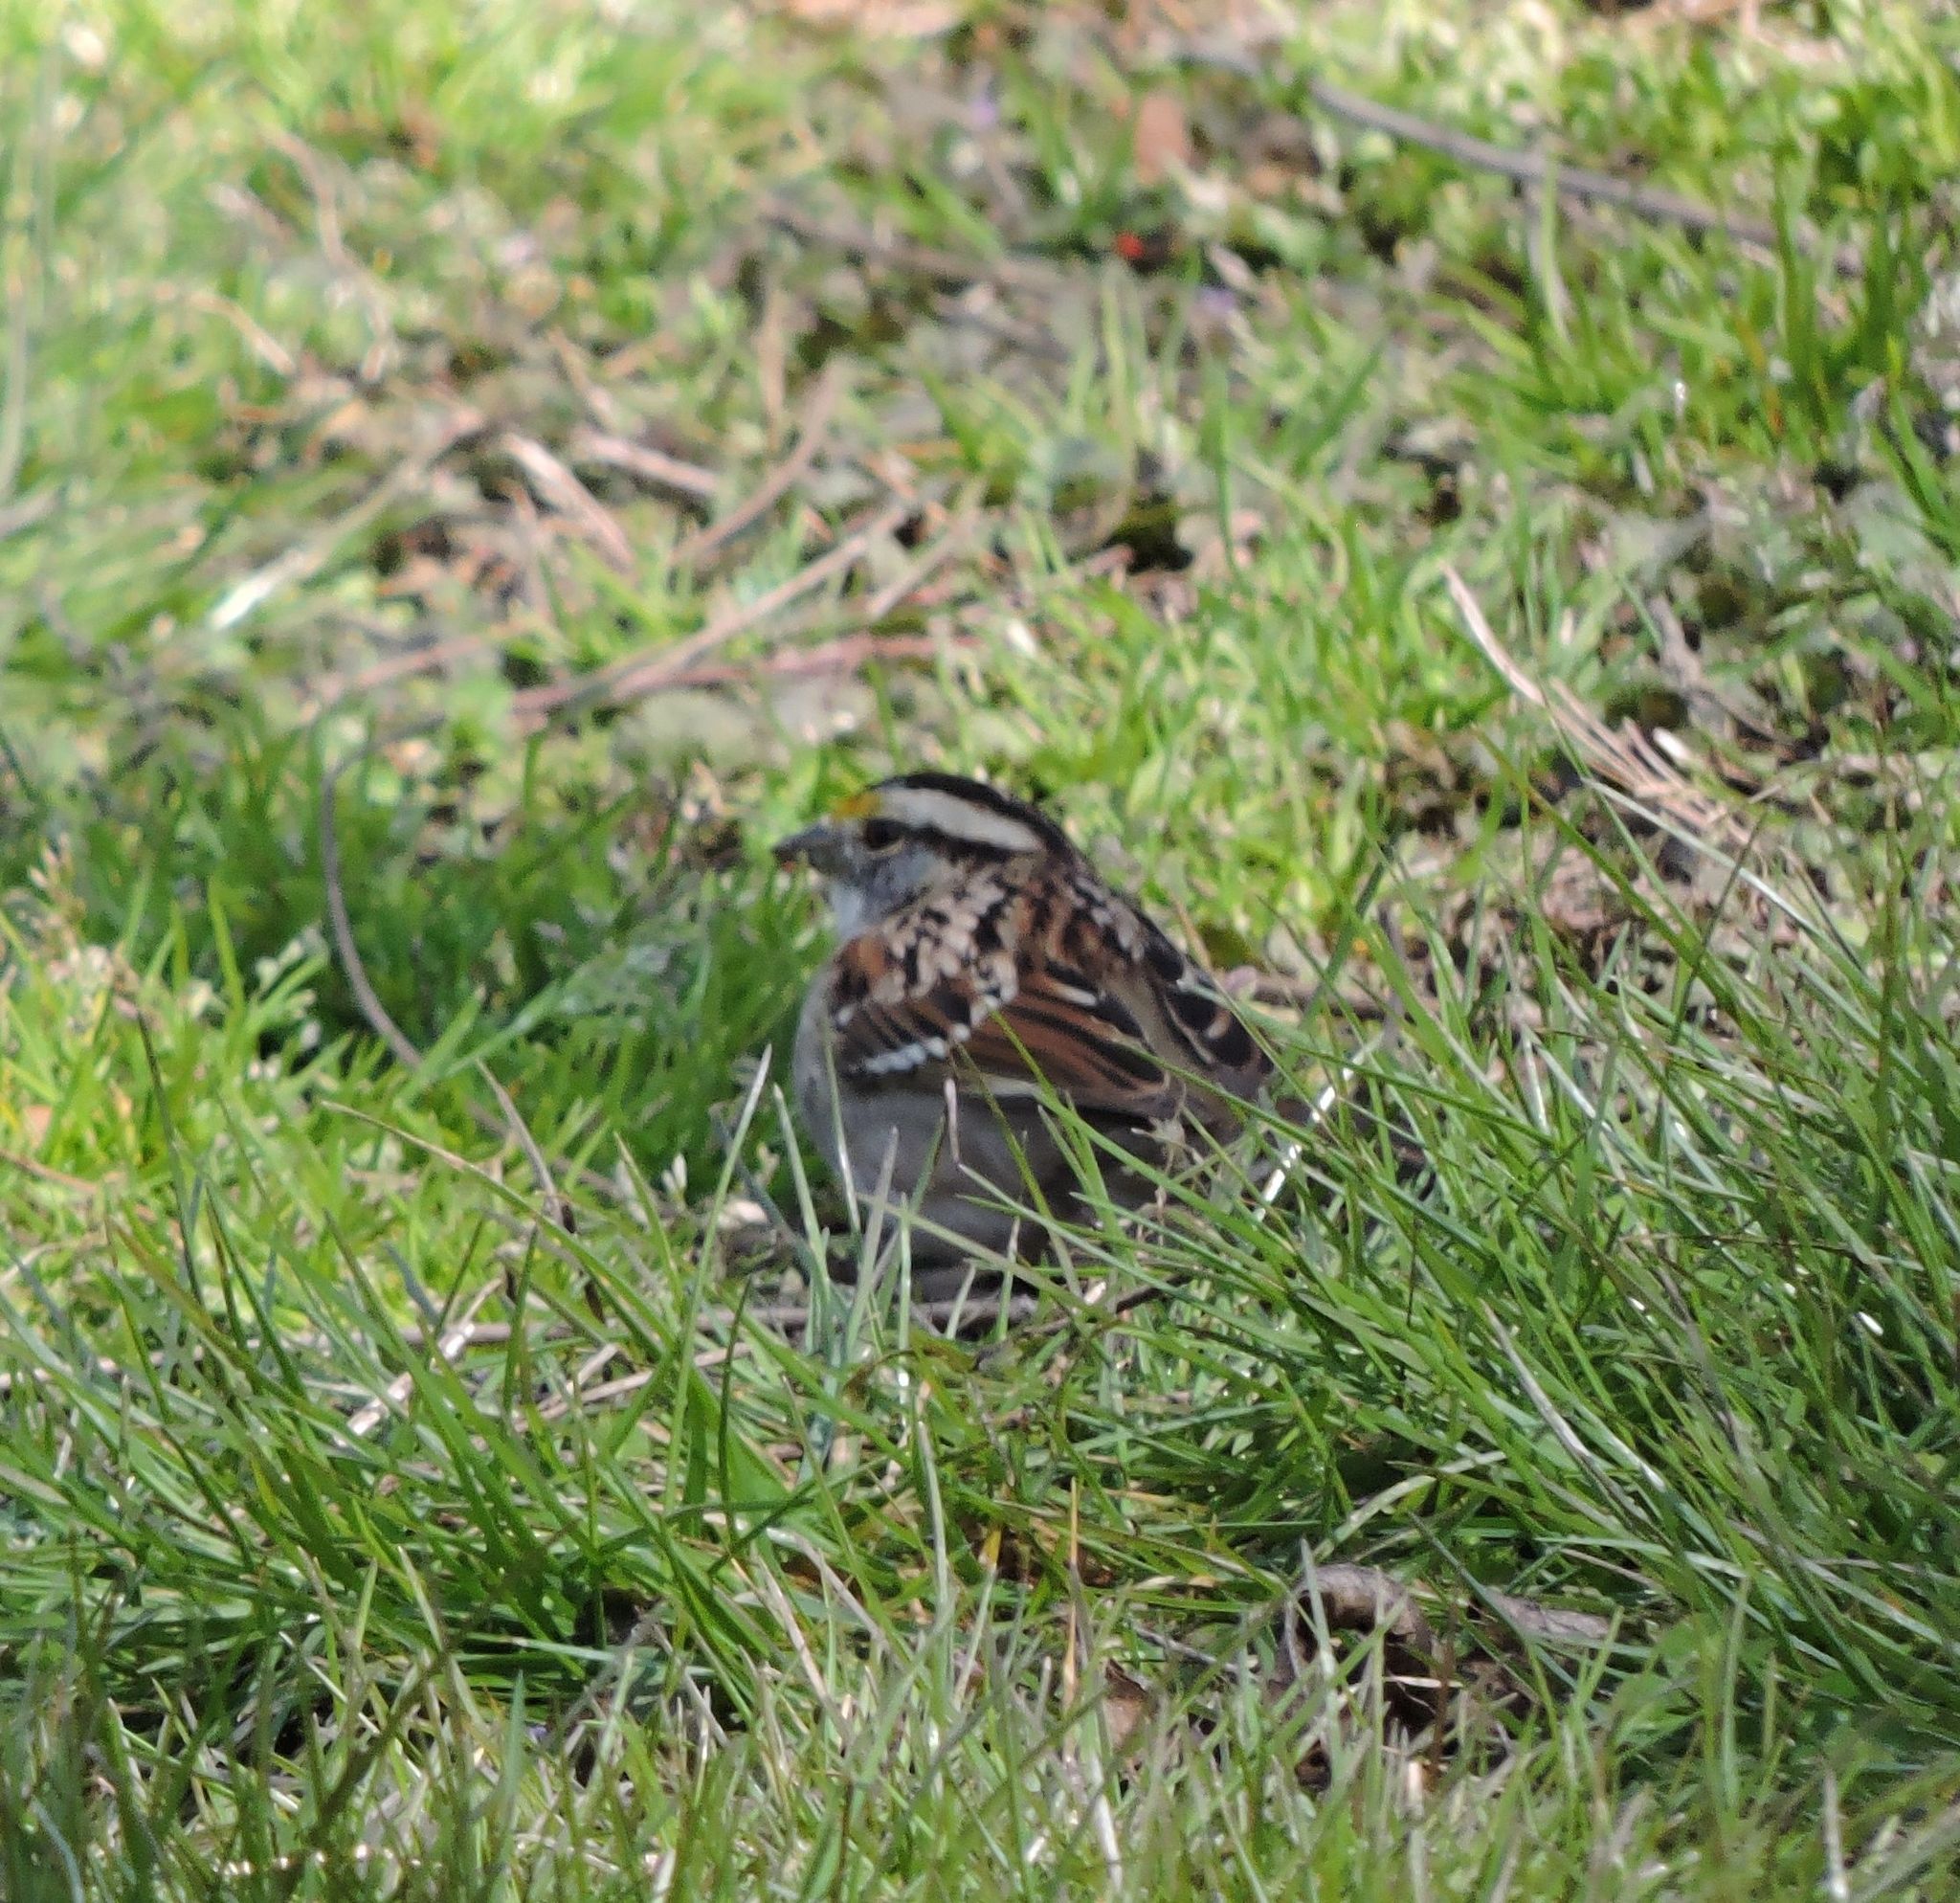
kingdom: Animalia
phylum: Chordata
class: Aves
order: Passeriformes
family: Passerellidae
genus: Zonotrichia
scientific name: Zonotrichia albicollis
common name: White-throated sparrow
